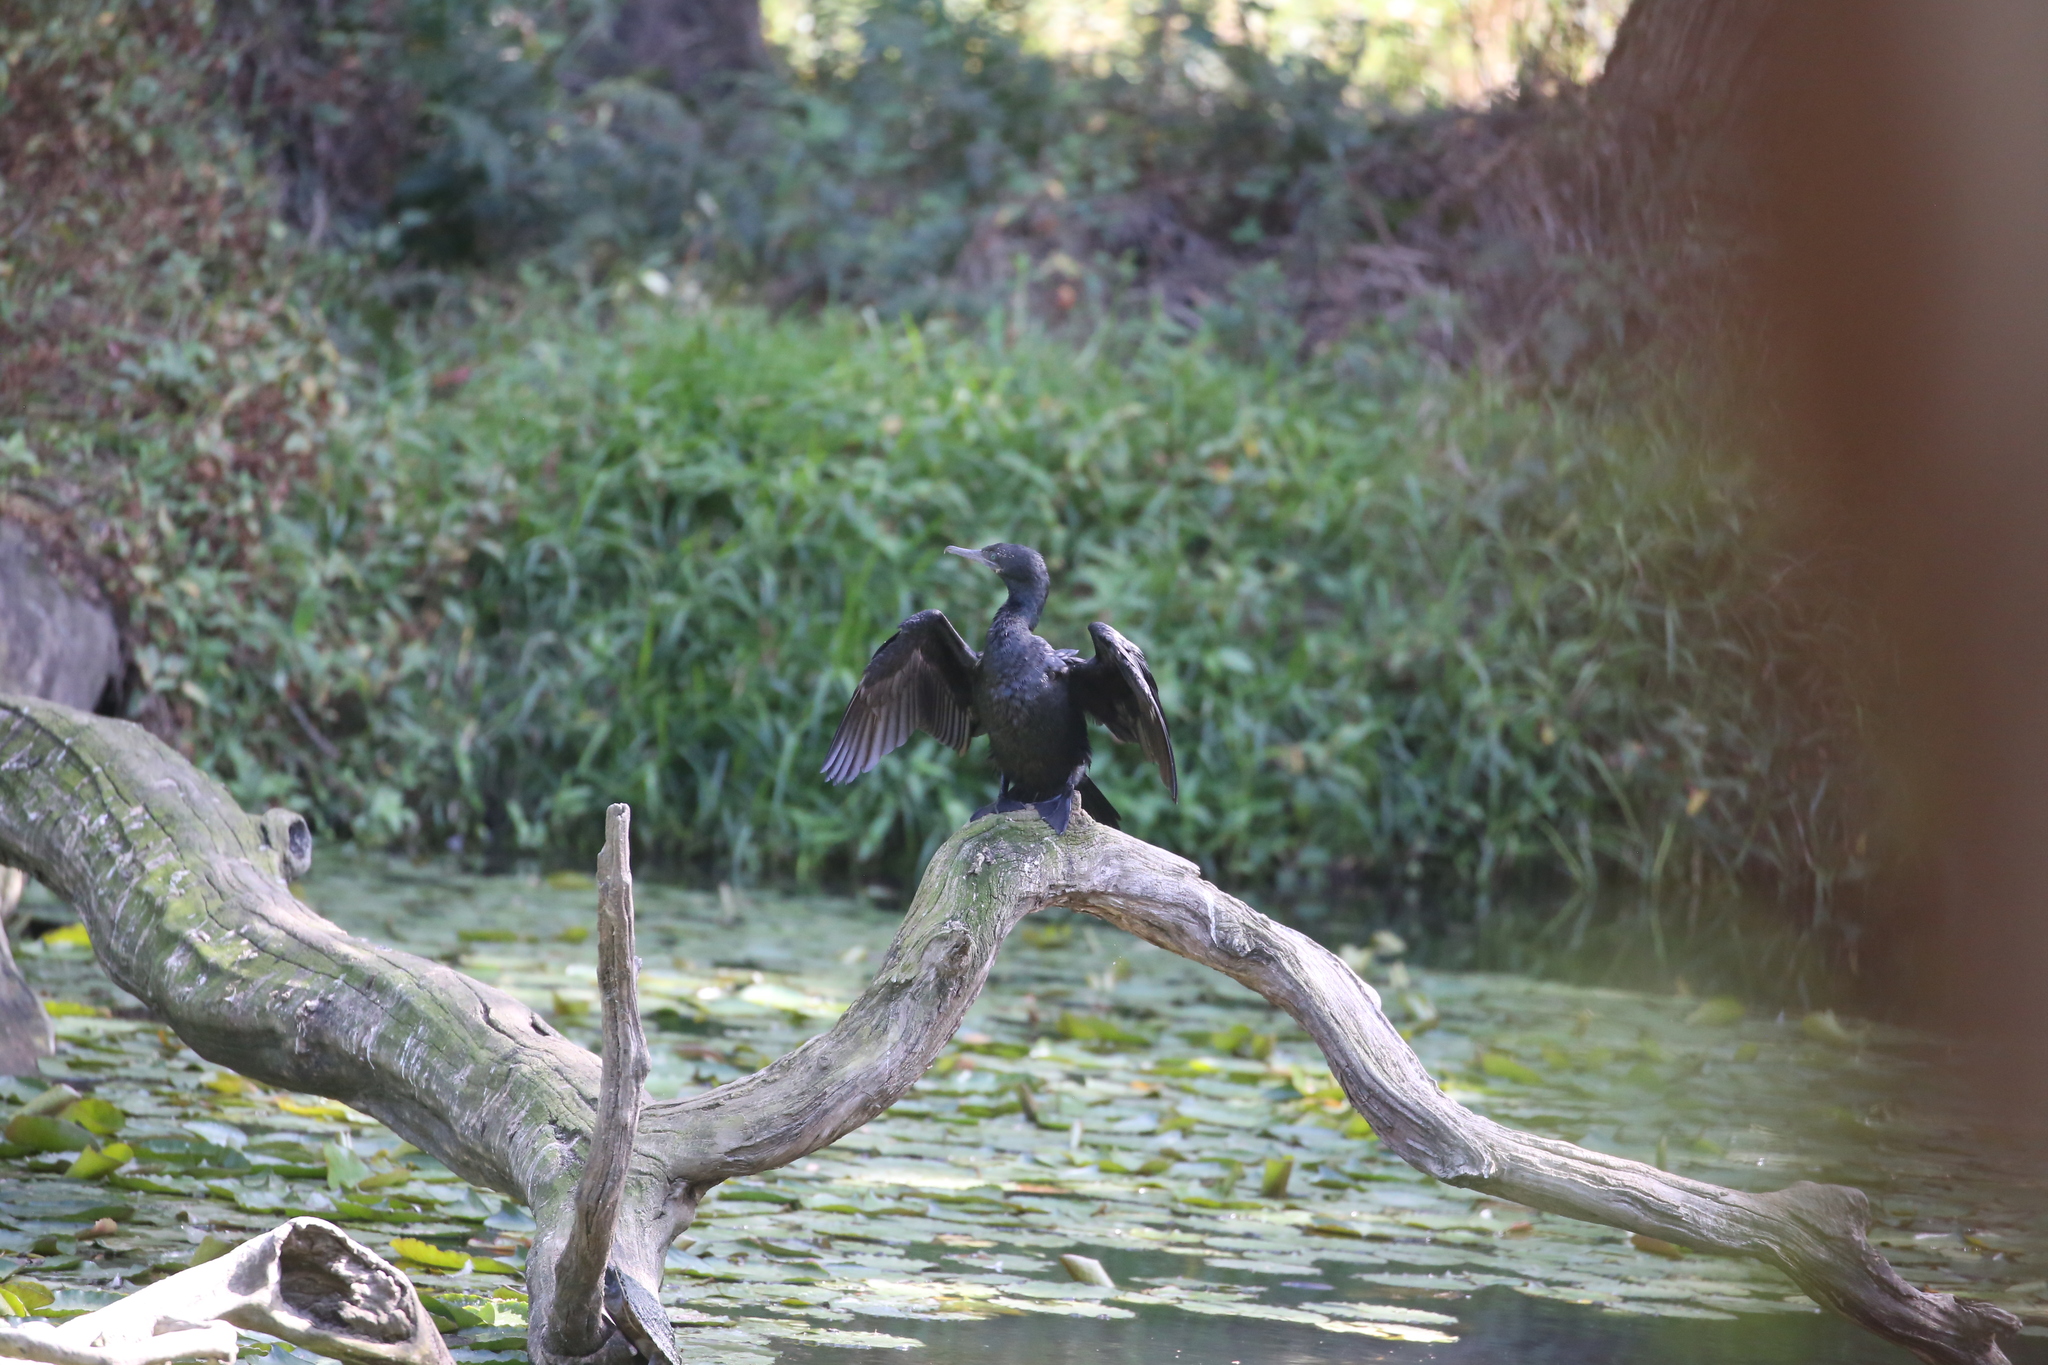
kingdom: Animalia
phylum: Chordata
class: Aves
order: Suliformes
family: Phalacrocoracidae
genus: Phalacrocorax
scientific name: Phalacrocorax sulcirostris
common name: Little black cormorant
